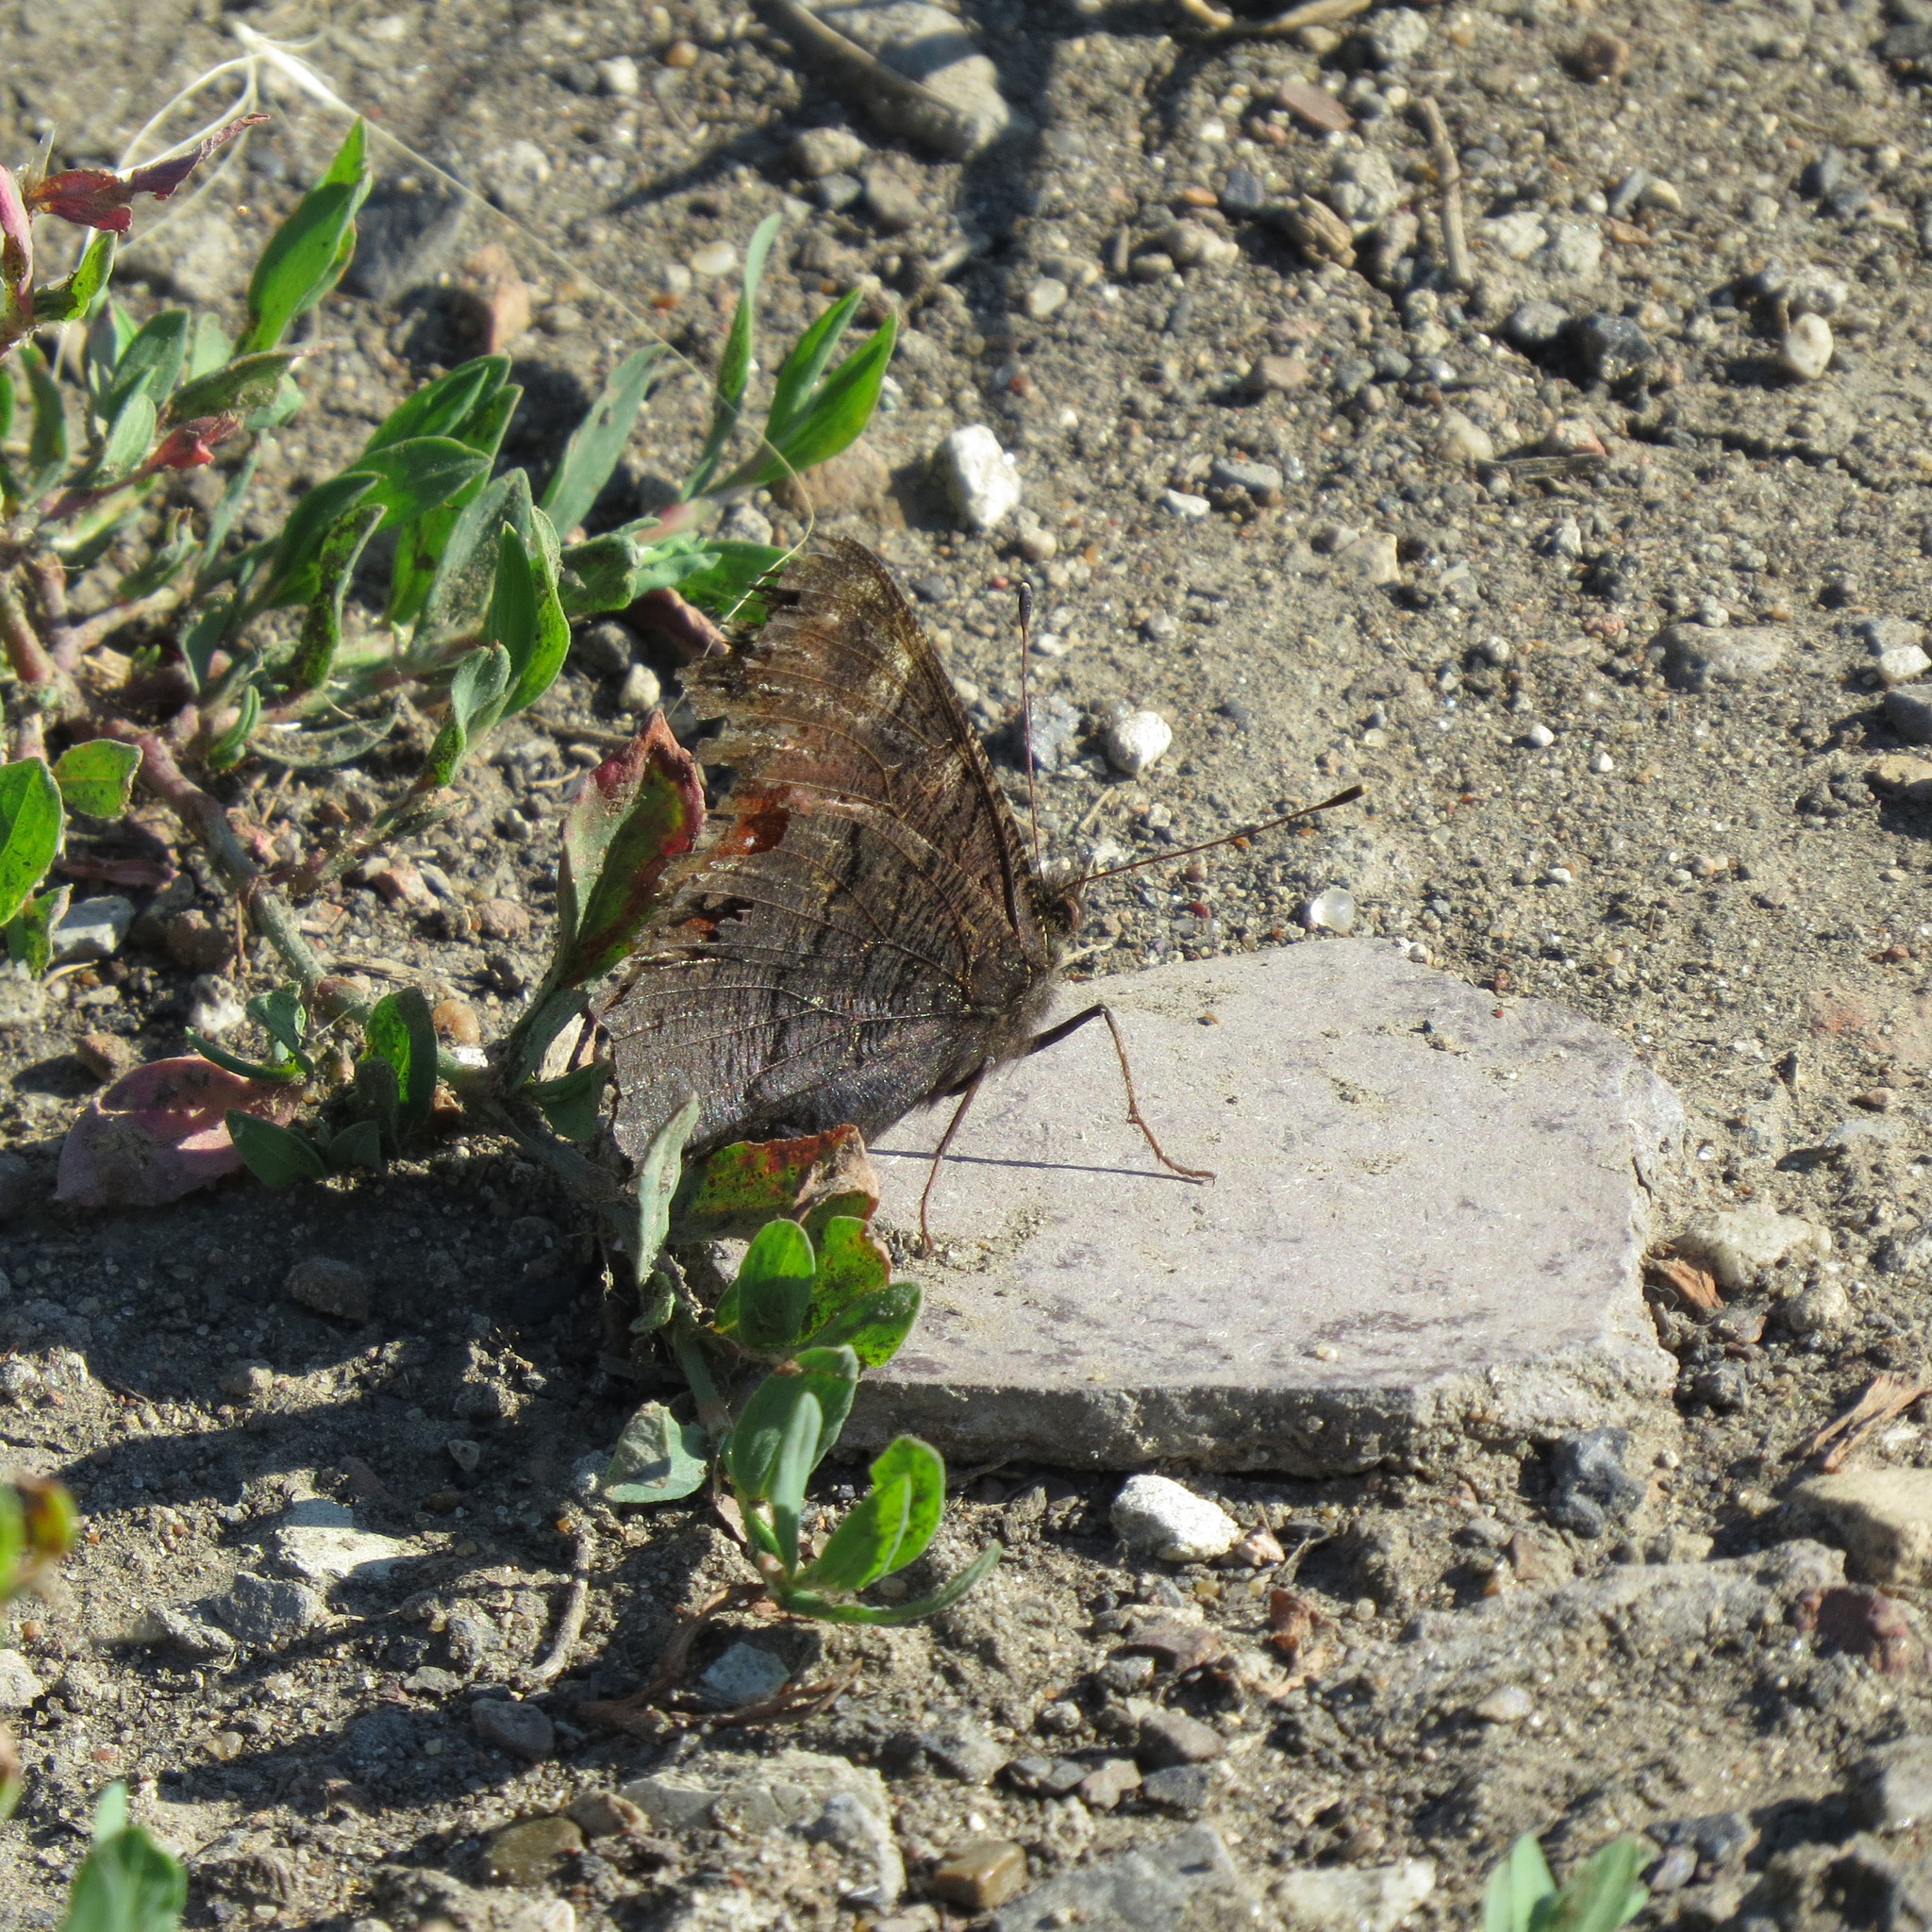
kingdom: Animalia
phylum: Arthropoda
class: Insecta
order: Lepidoptera
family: Nymphalidae
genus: Aglais
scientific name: Aglais io
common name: Peacock
